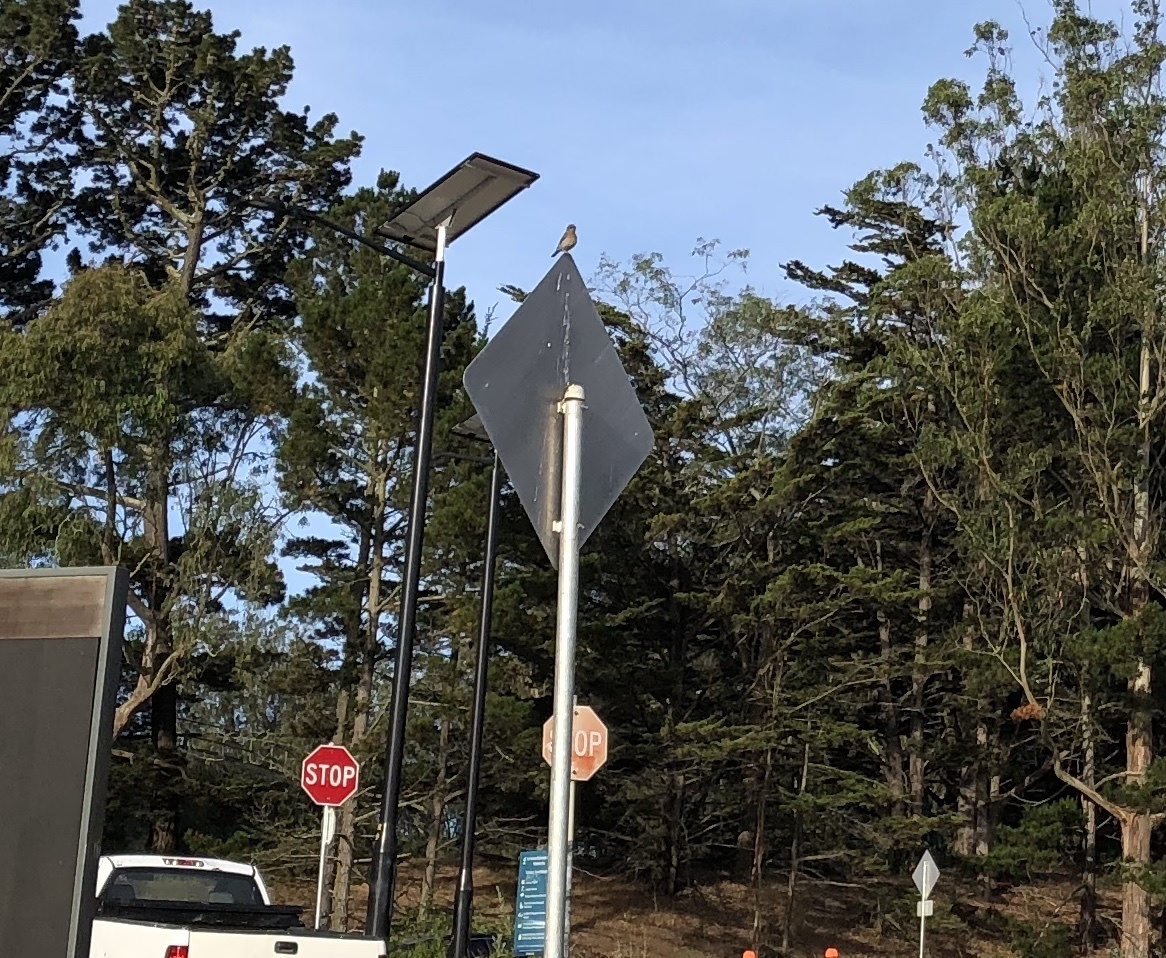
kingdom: Animalia
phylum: Chordata
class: Aves
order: Passeriformes
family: Turdidae
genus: Sialia
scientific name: Sialia mexicana
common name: Western bluebird
